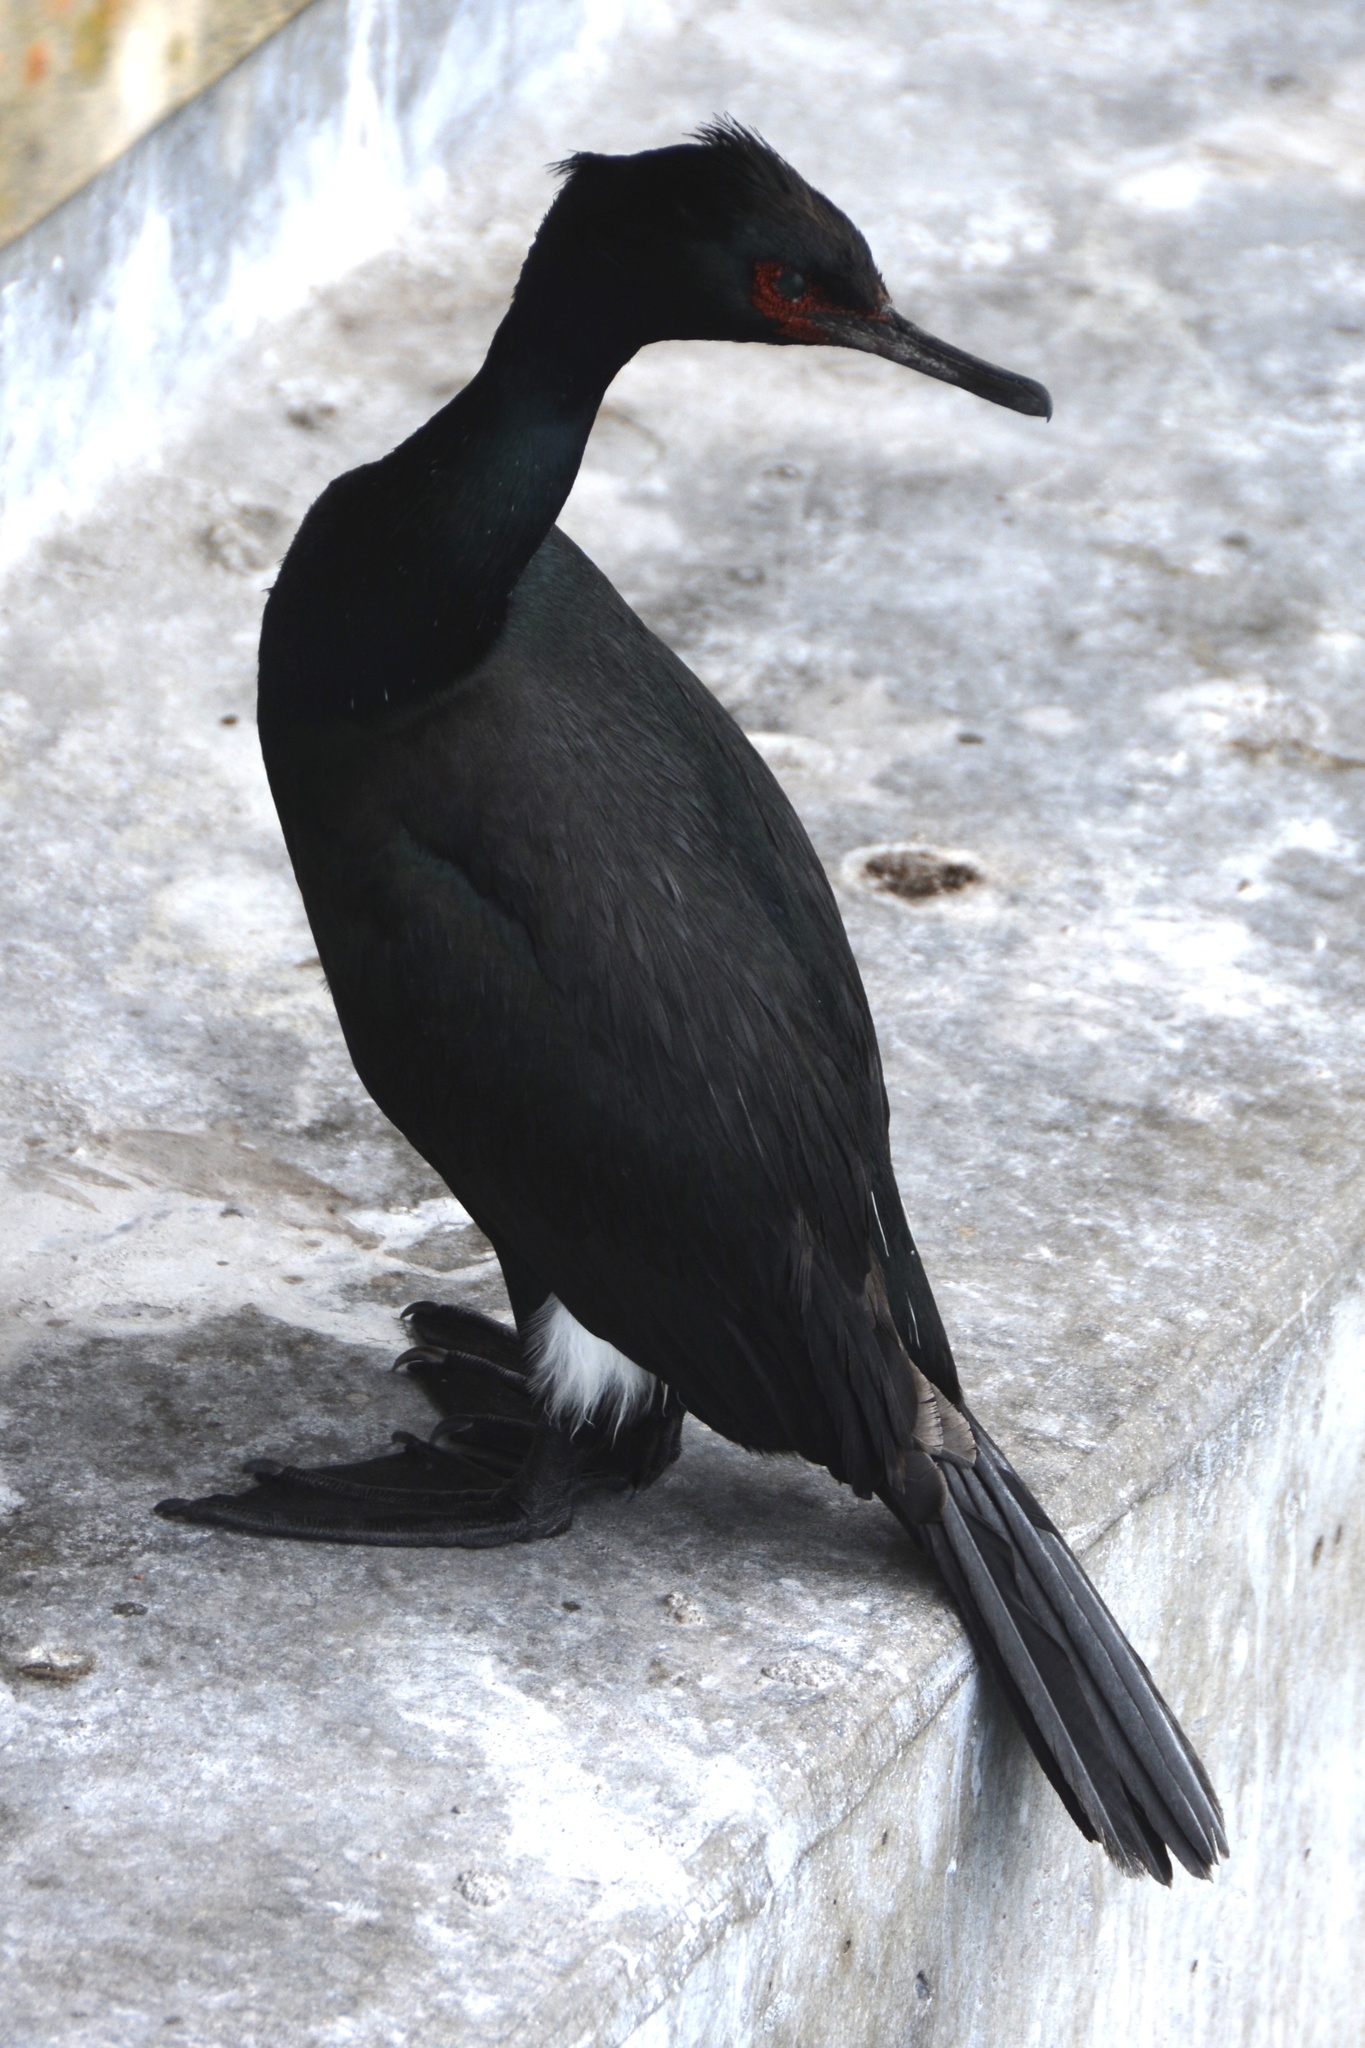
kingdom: Animalia
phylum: Chordata
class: Aves
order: Suliformes
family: Phalacrocoracidae
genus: Phalacrocorax
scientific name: Phalacrocorax pelagicus
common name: Pelagic cormorant
